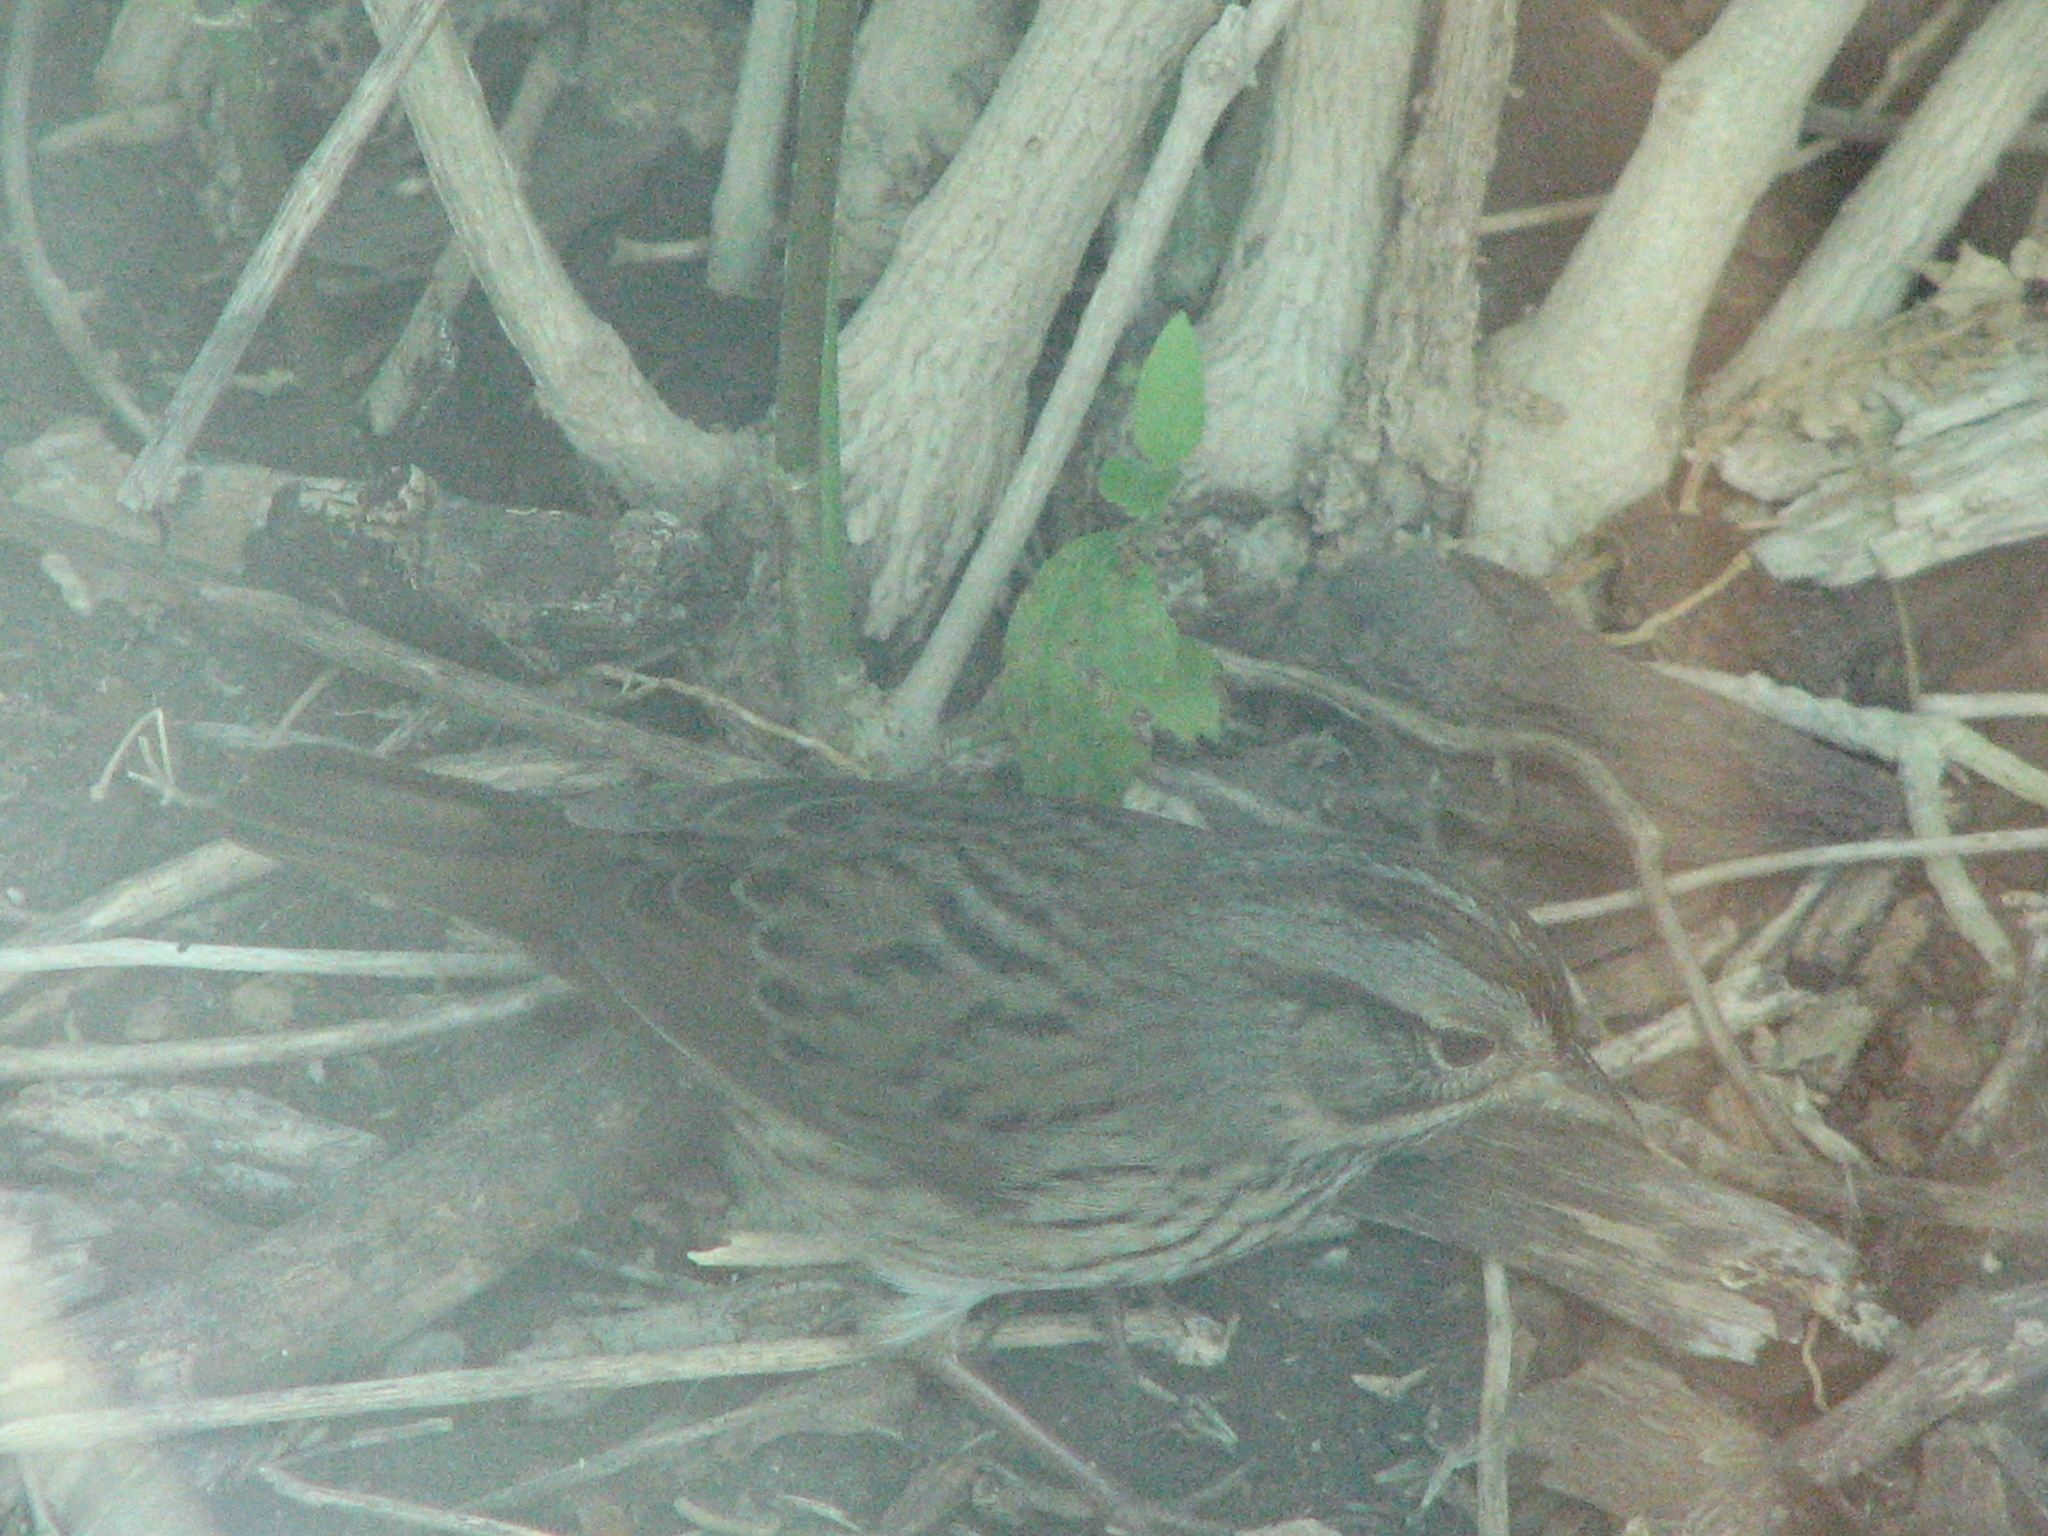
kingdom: Animalia
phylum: Chordata
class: Aves
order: Passeriformes
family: Passerellidae
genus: Melospiza
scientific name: Melospiza lincolnii
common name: Lincoln's sparrow
